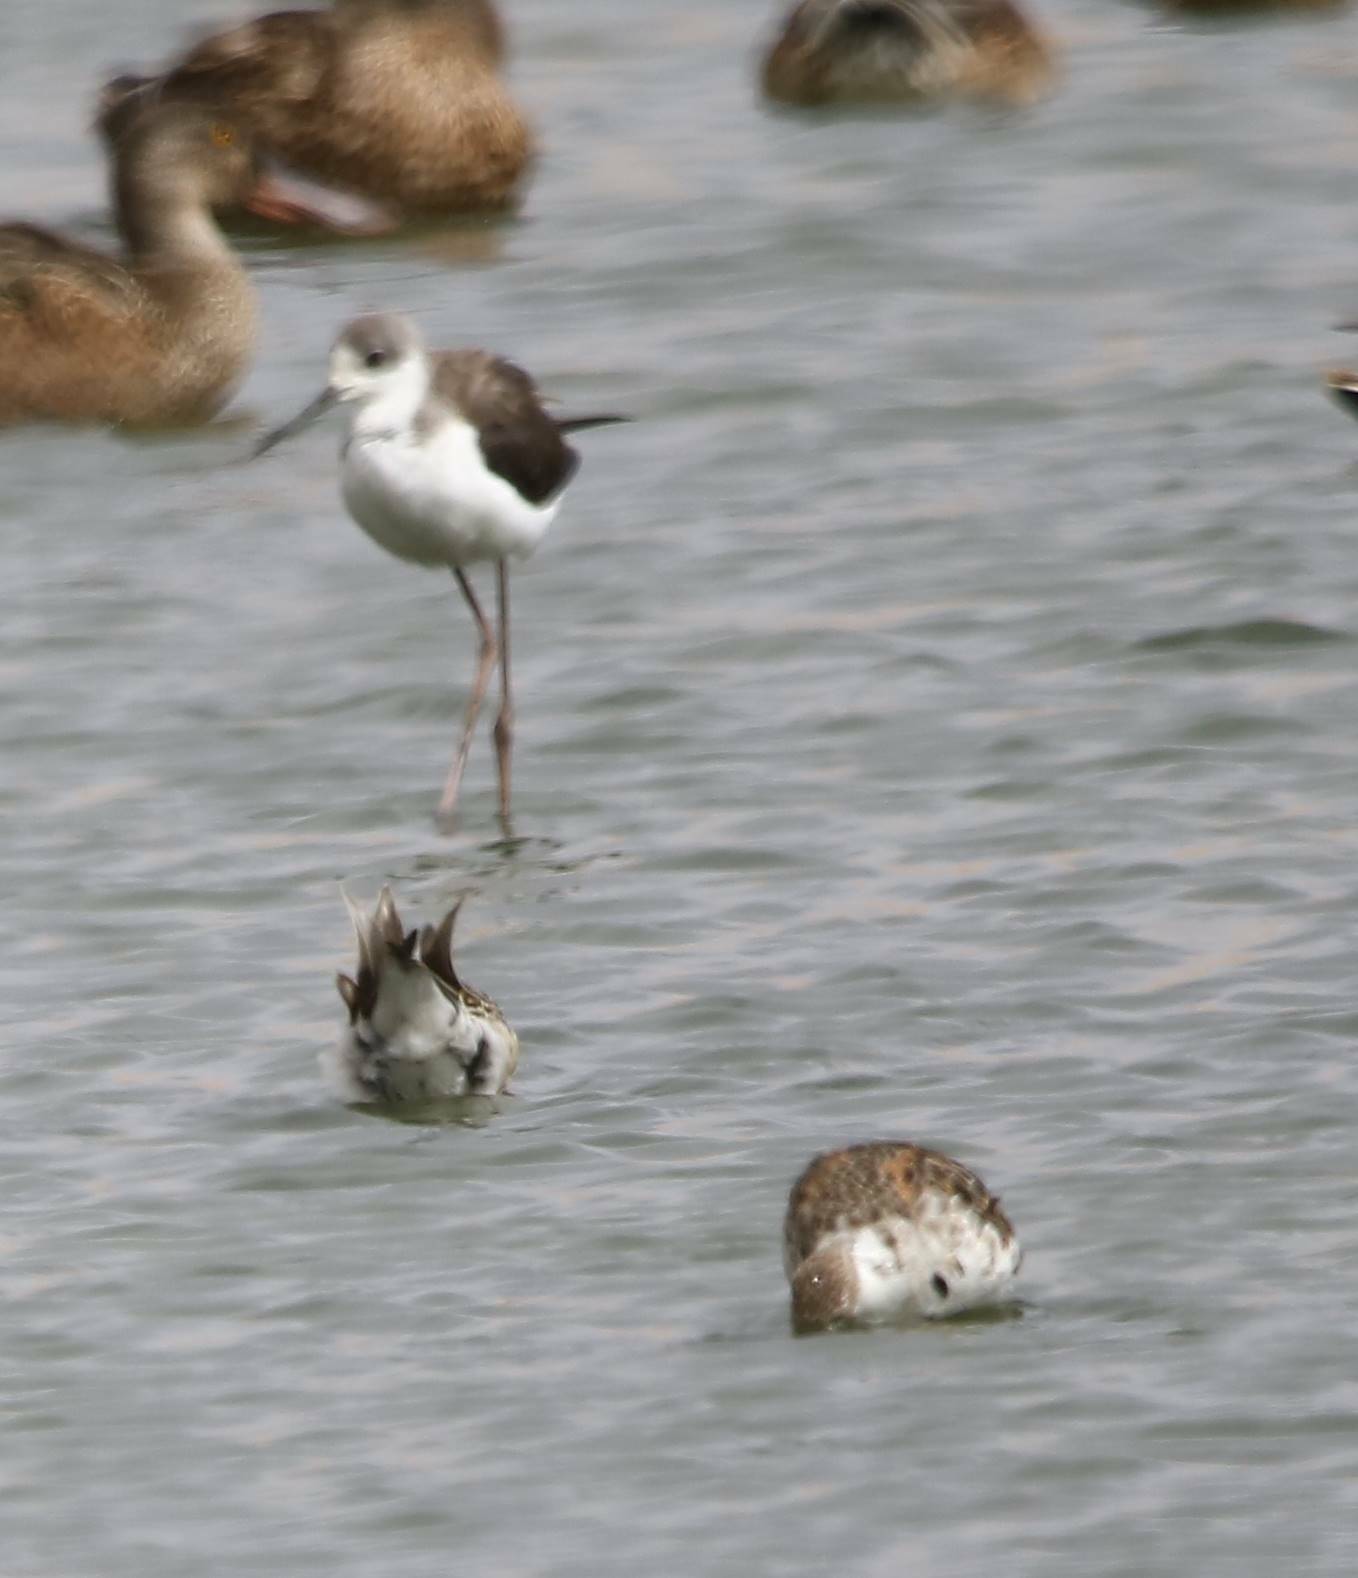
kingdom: Animalia
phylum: Chordata
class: Aves
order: Charadriiformes
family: Recurvirostridae
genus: Himantopus
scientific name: Himantopus himantopus
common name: Black-winged stilt
